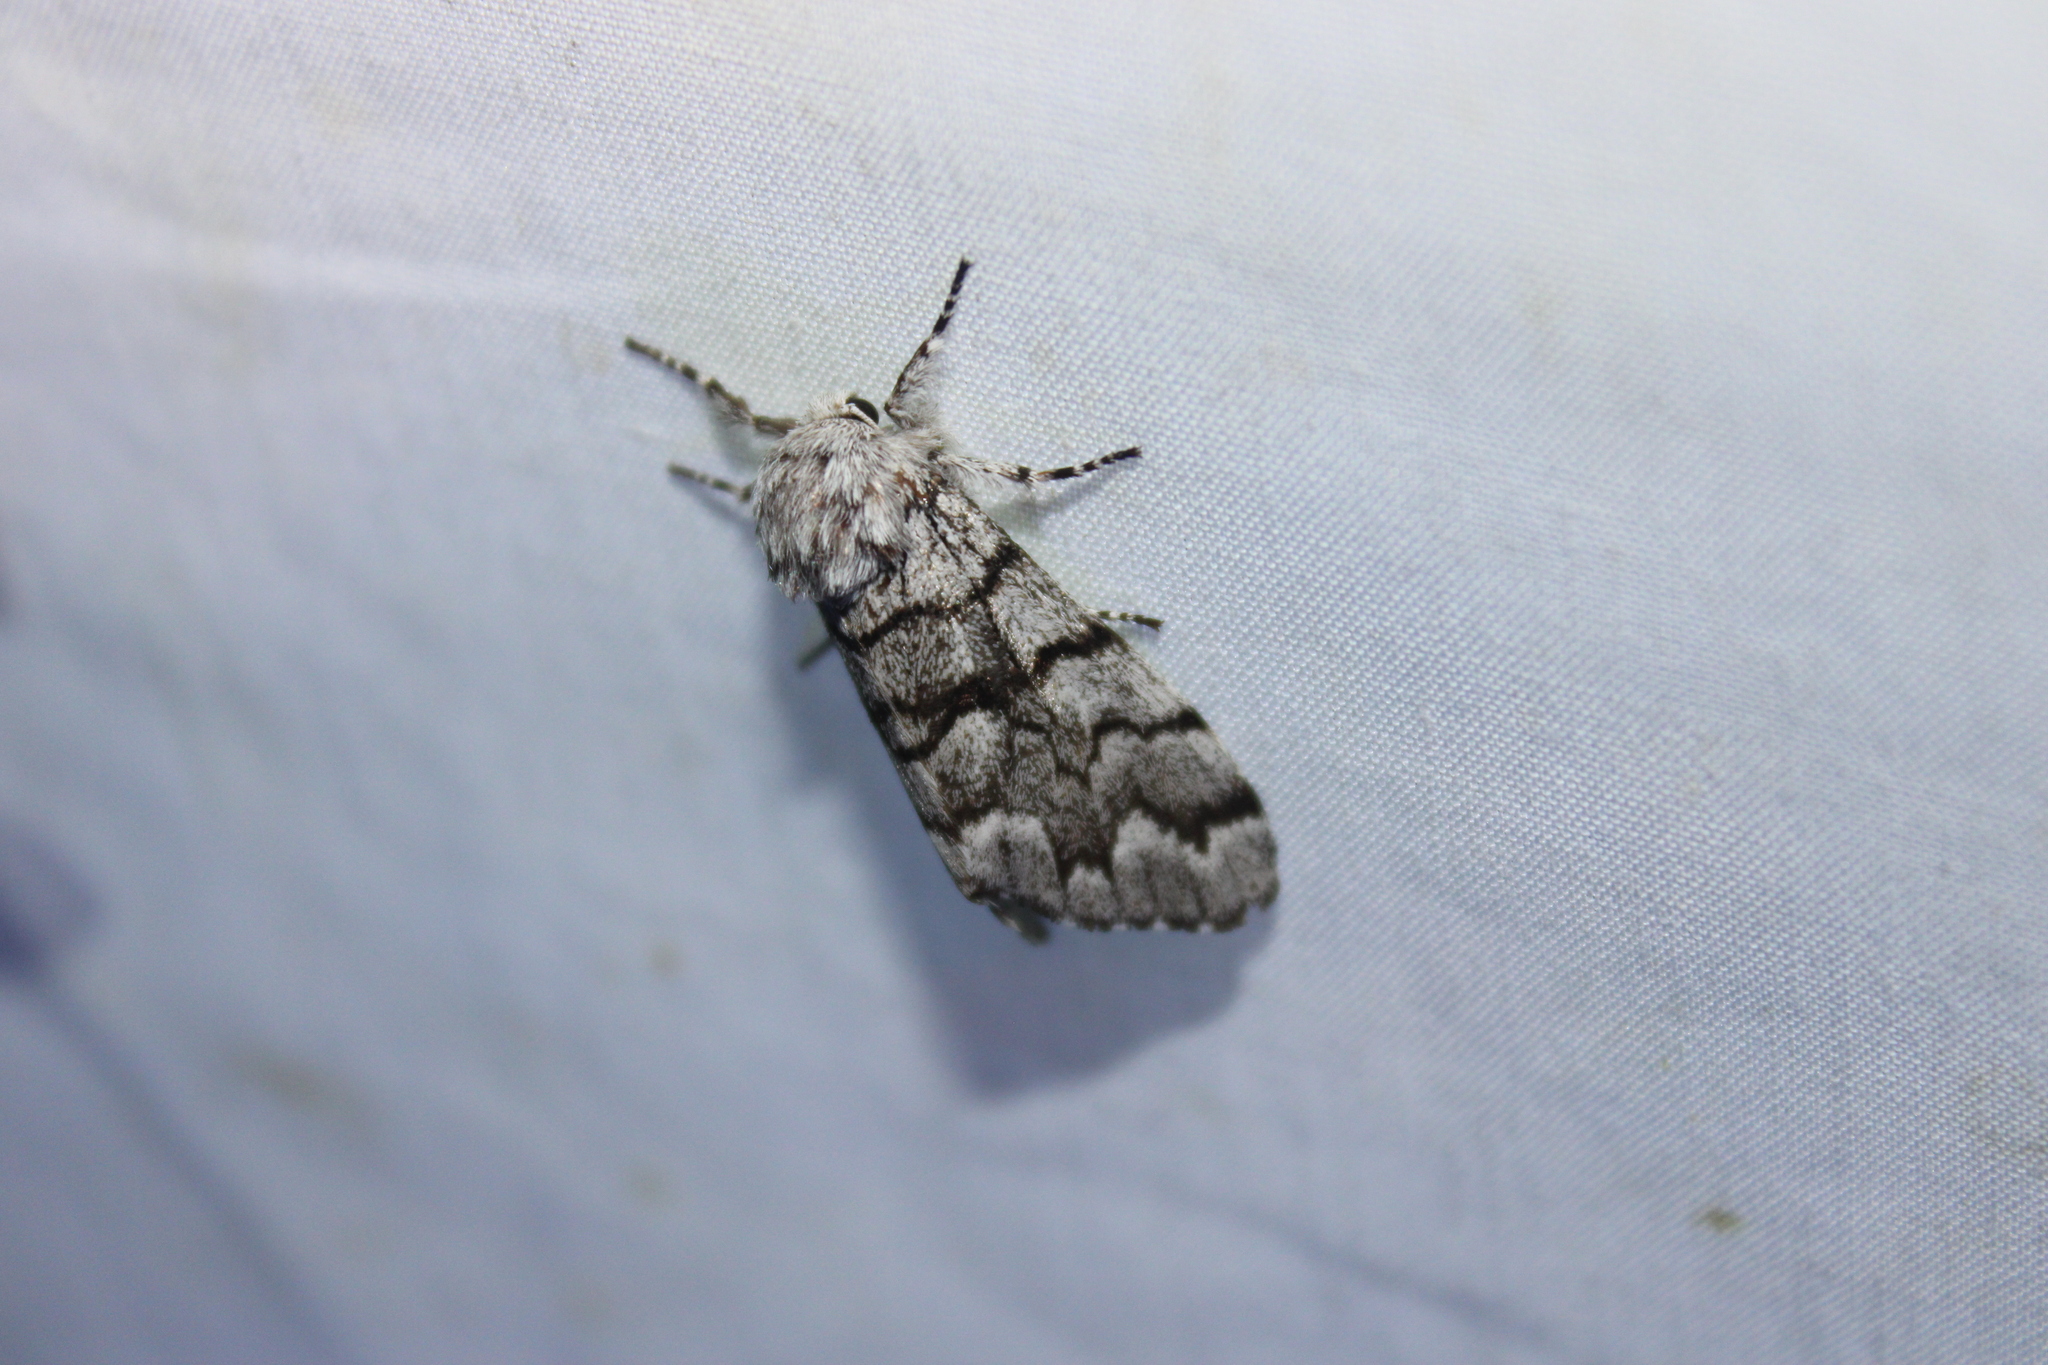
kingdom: Animalia
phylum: Arthropoda
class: Insecta
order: Lepidoptera
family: Noctuidae
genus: Panthea
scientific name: Panthea furcilla
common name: Eastern panthea moth
